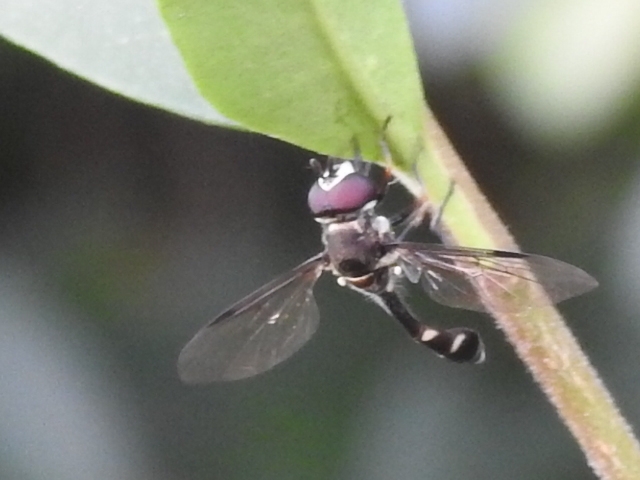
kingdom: Animalia
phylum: Arthropoda
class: Insecta
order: Diptera
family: Syrphidae
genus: Dioprosopa
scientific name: Dioprosopa clavatus
